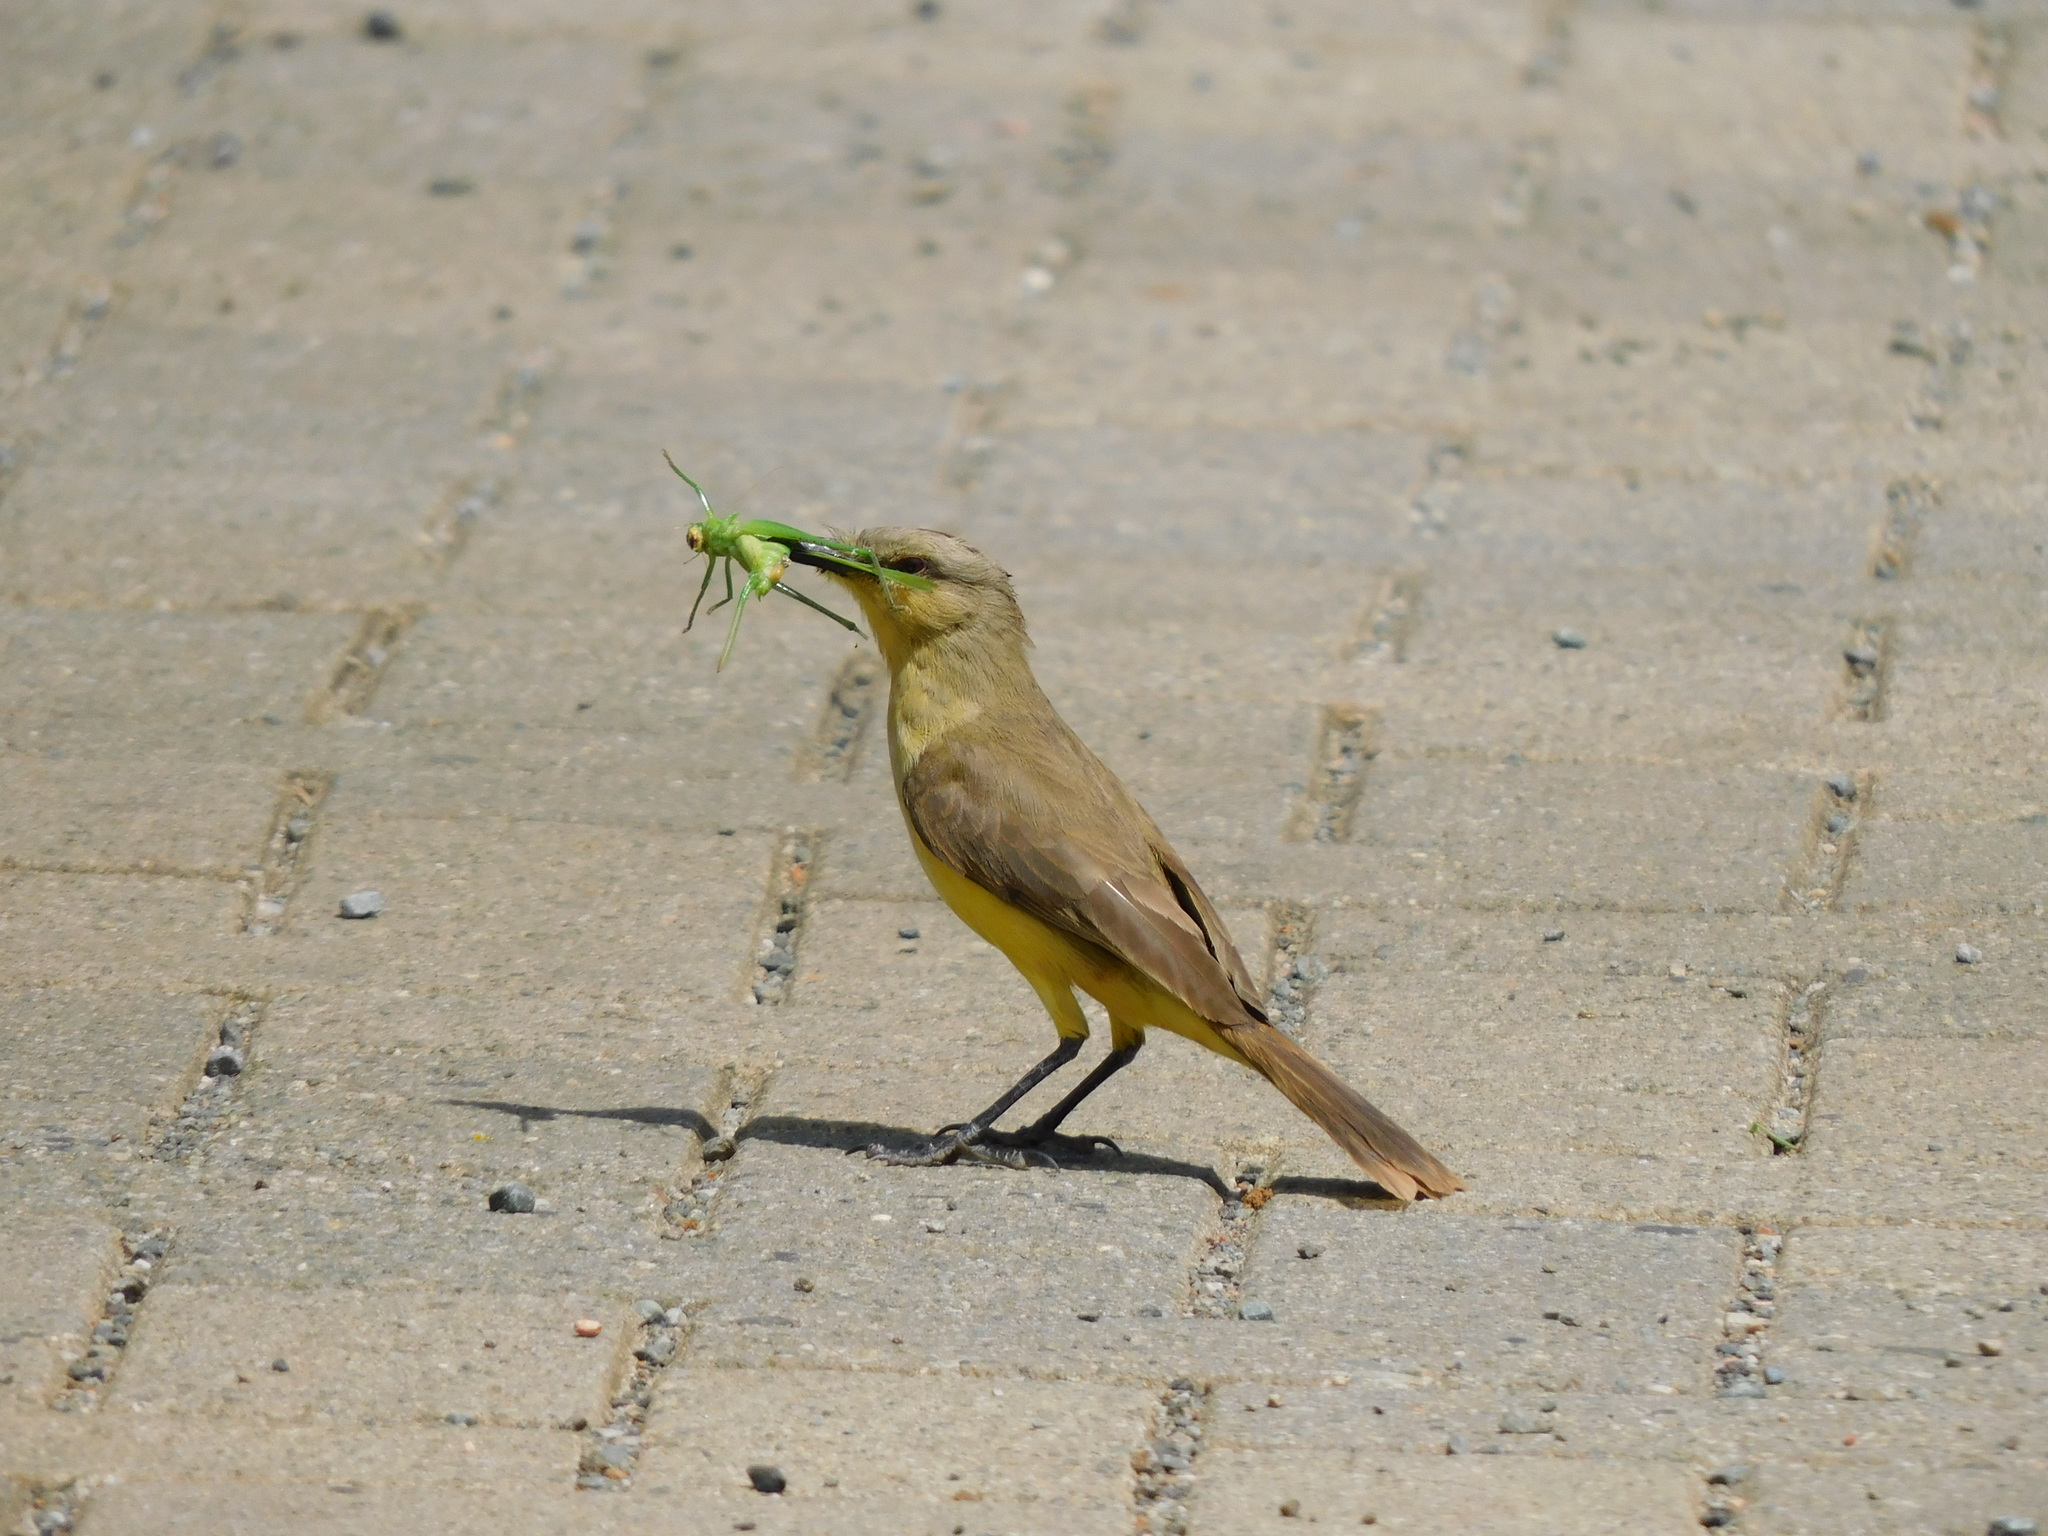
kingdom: Animalia
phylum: Chordata
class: Aves
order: Passeriformes
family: Tyrannidae
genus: Machetornis
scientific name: Machetornis rixosa
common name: Cattle tyrant
